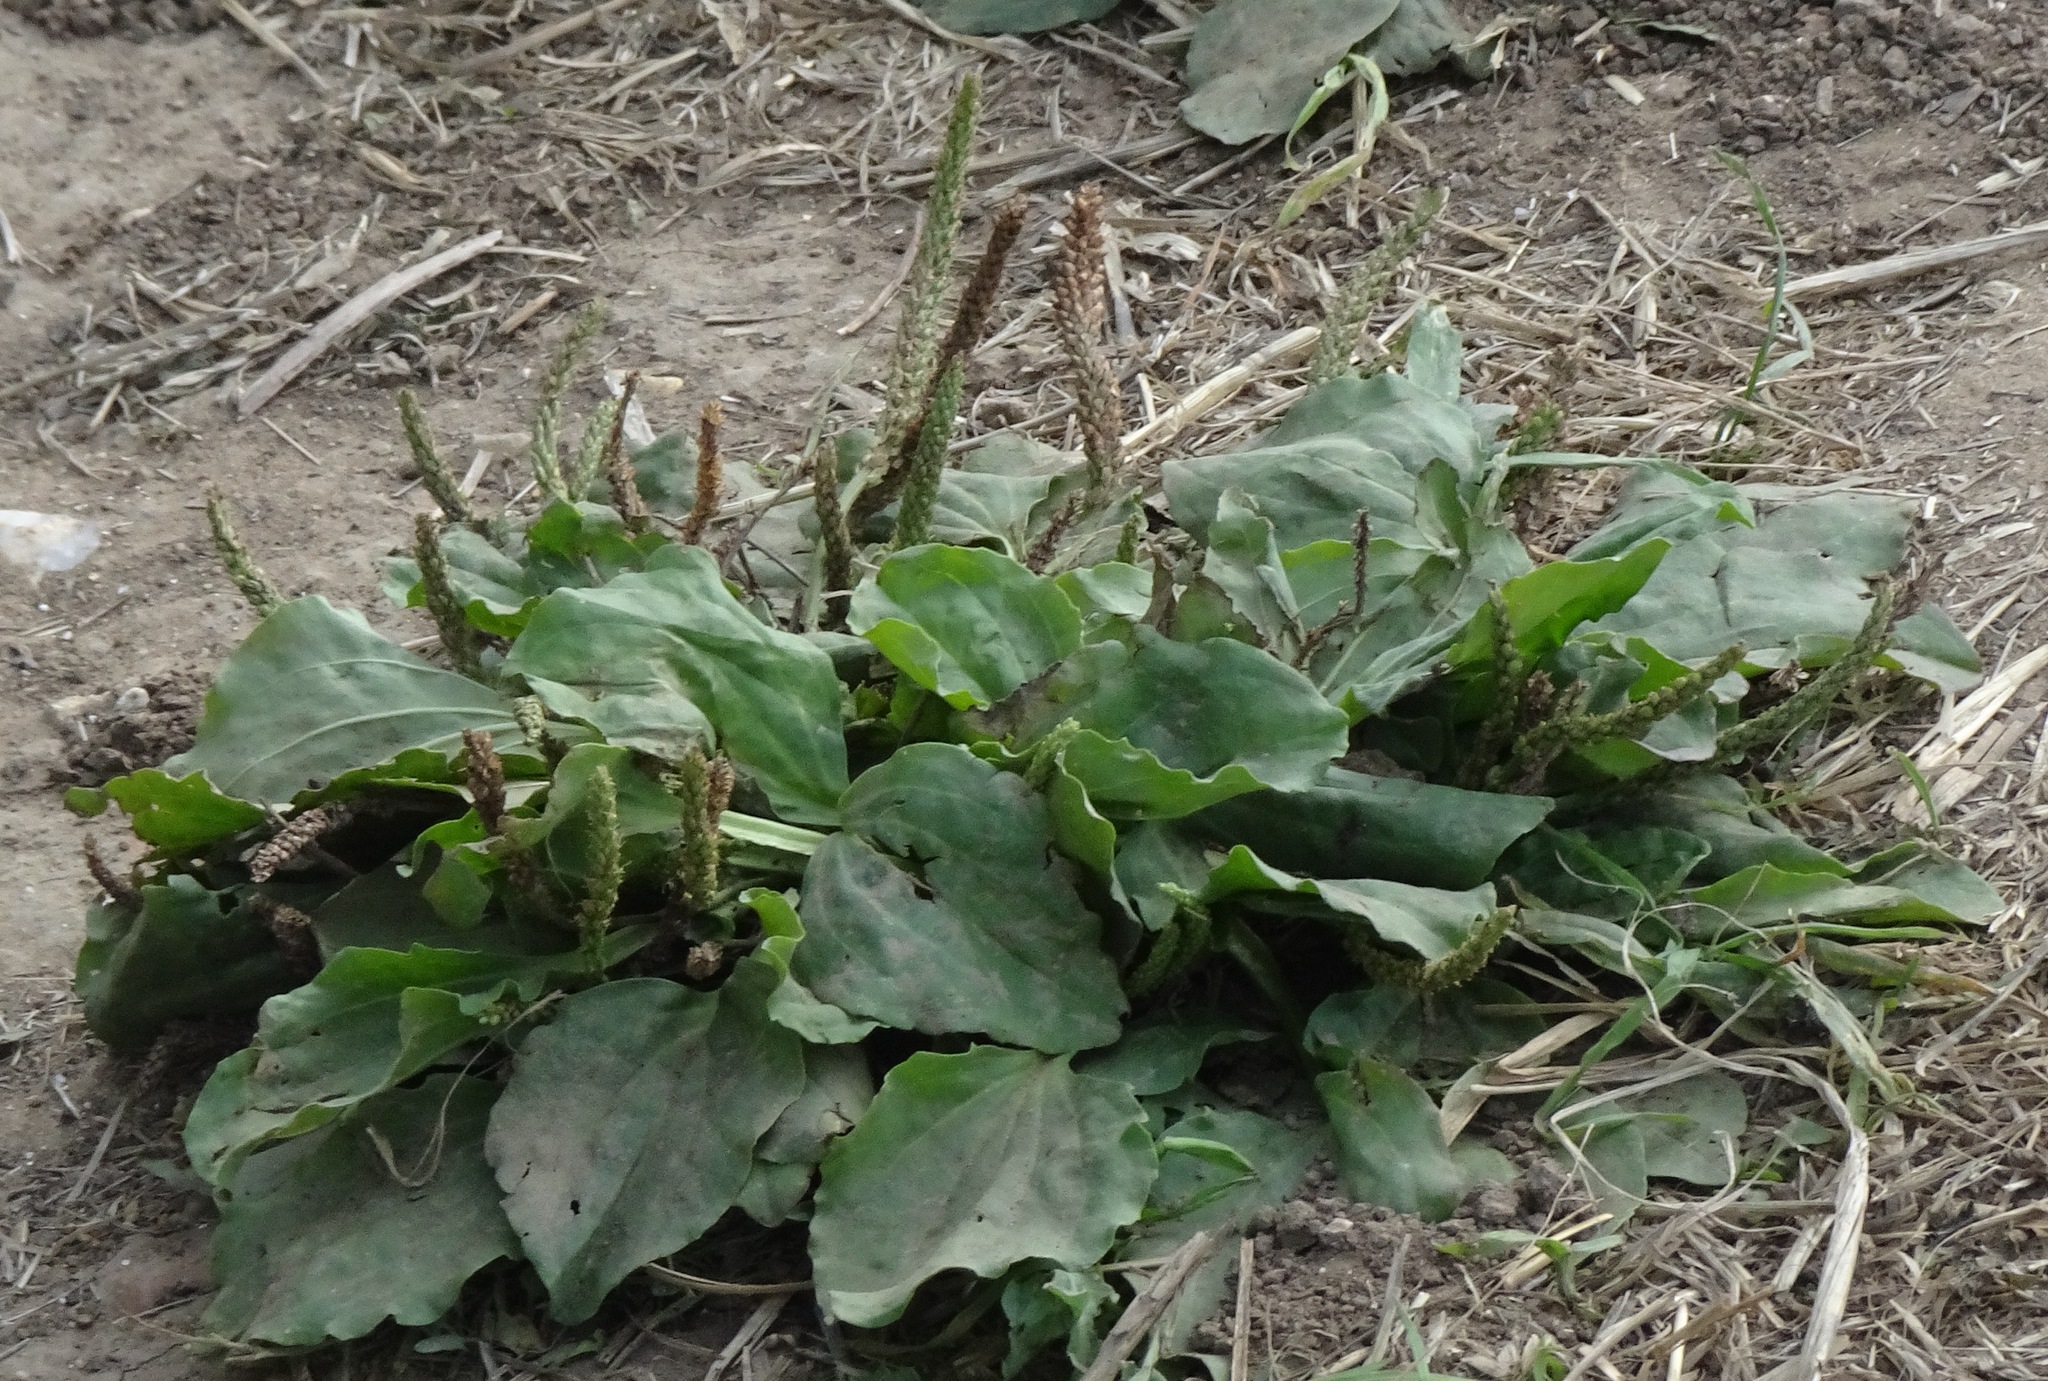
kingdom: Plantae
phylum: Tracheophyta
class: Magnoliopsida
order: Lamiales
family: Plantaginaceae
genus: Plantago
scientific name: Plantago major
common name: Common plantain
